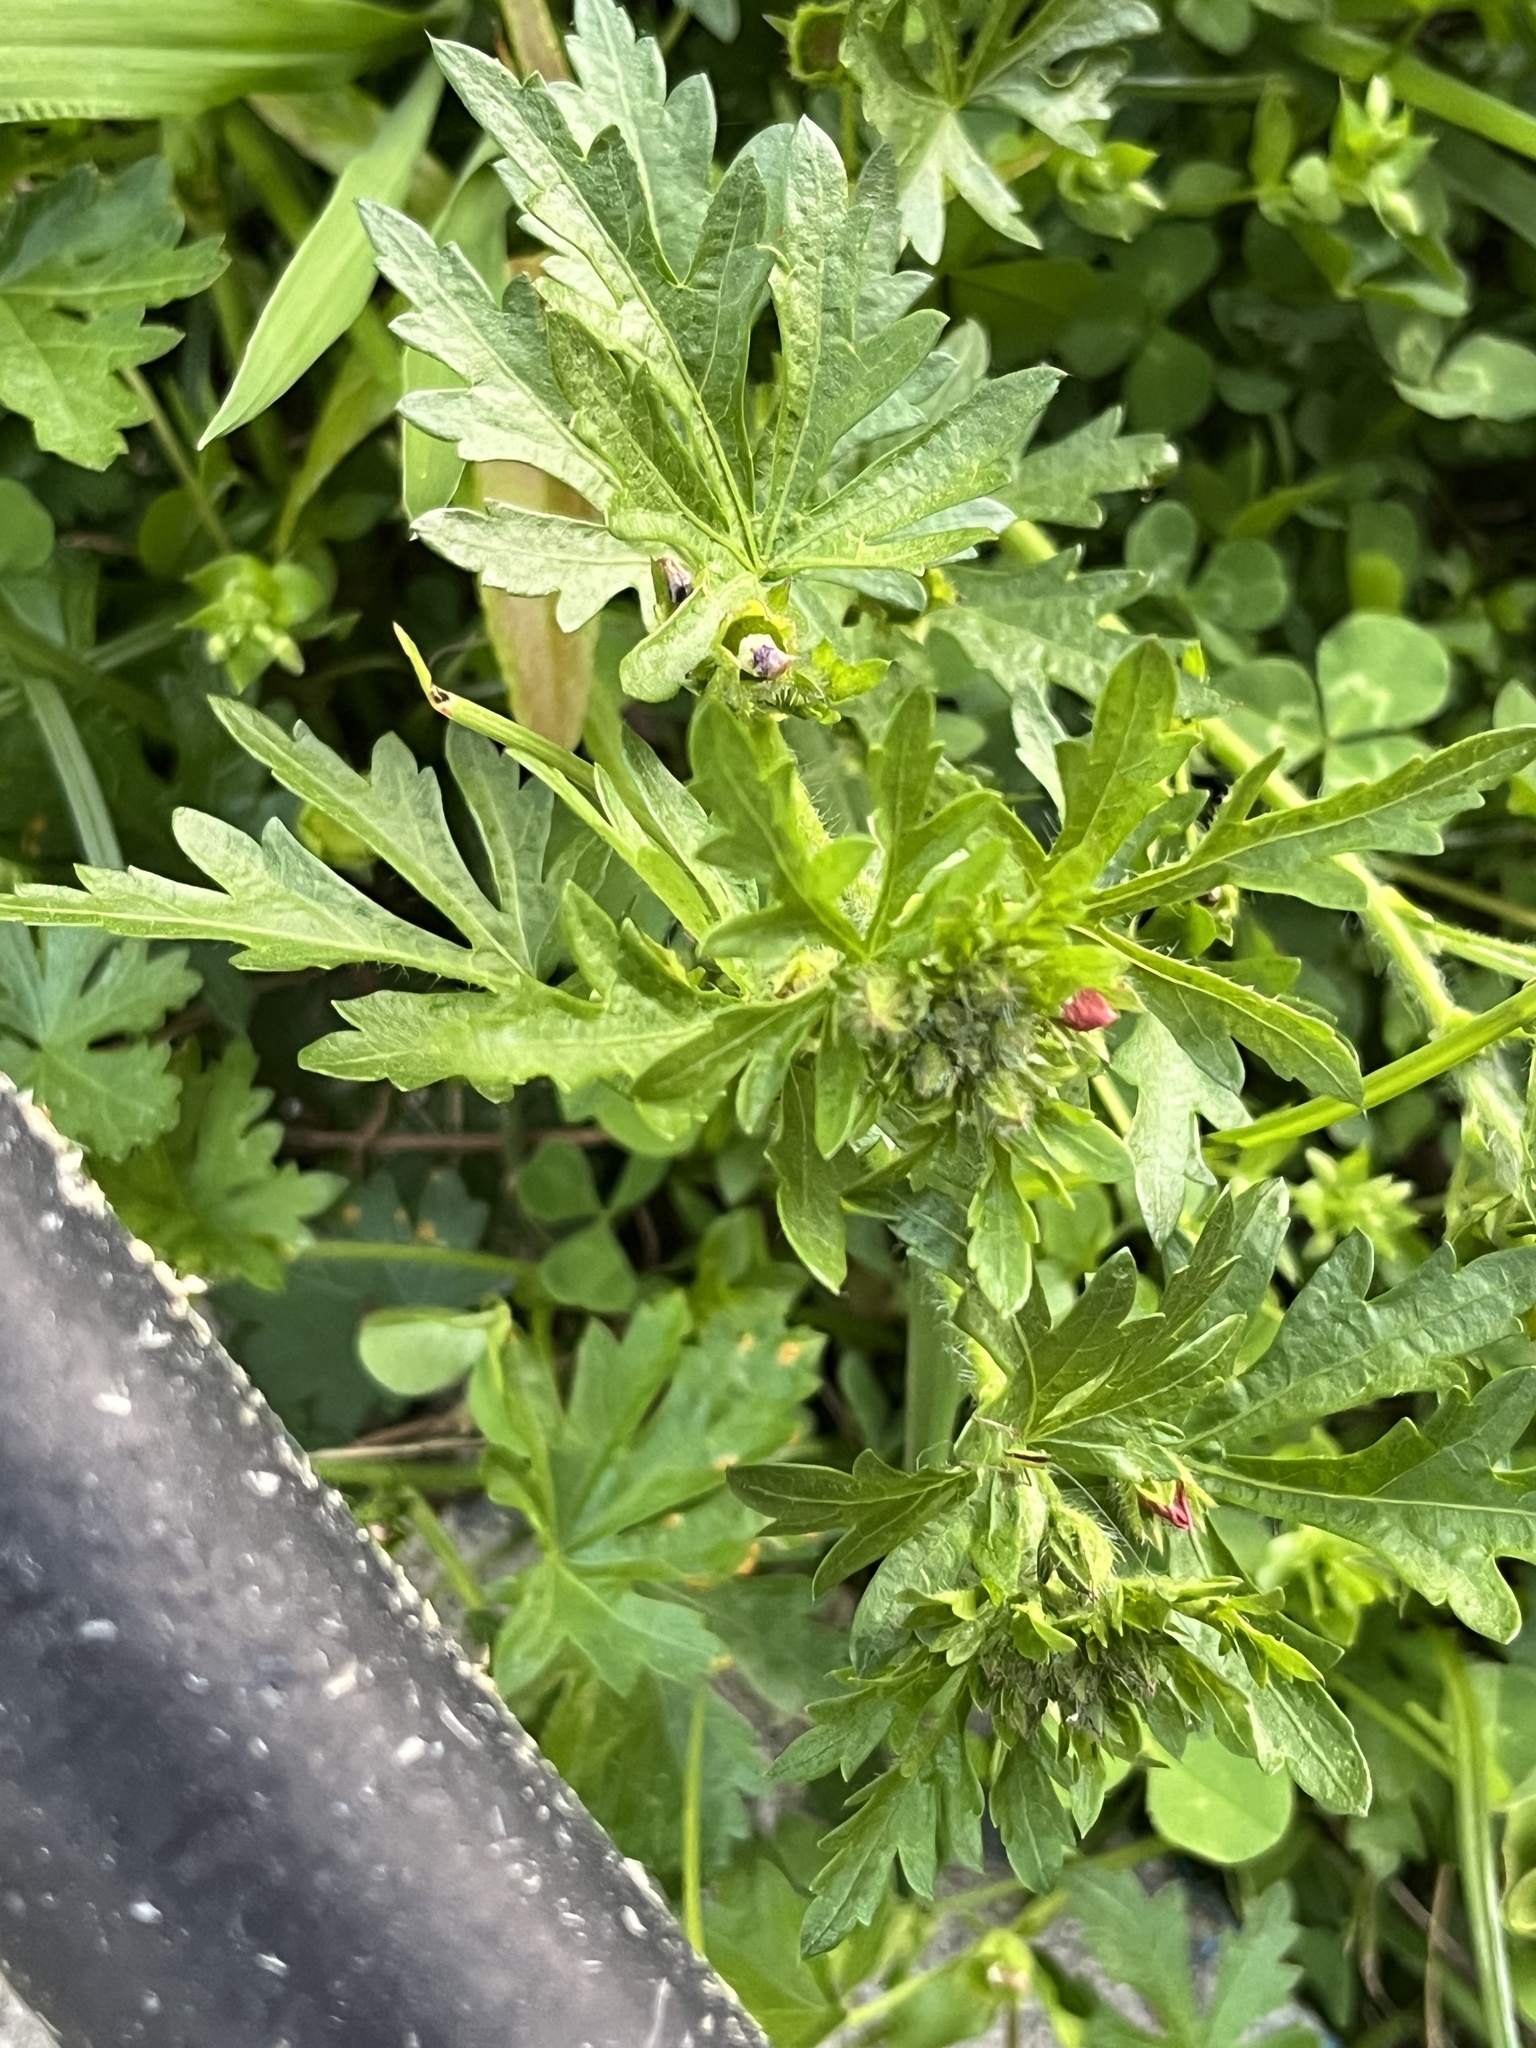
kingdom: Plantae
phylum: Tracheophyta
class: Magnoliopsida
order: Malvales
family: Malvaceae
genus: Modiola
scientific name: Modiola caroliniana
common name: Carolina bristlemallow
